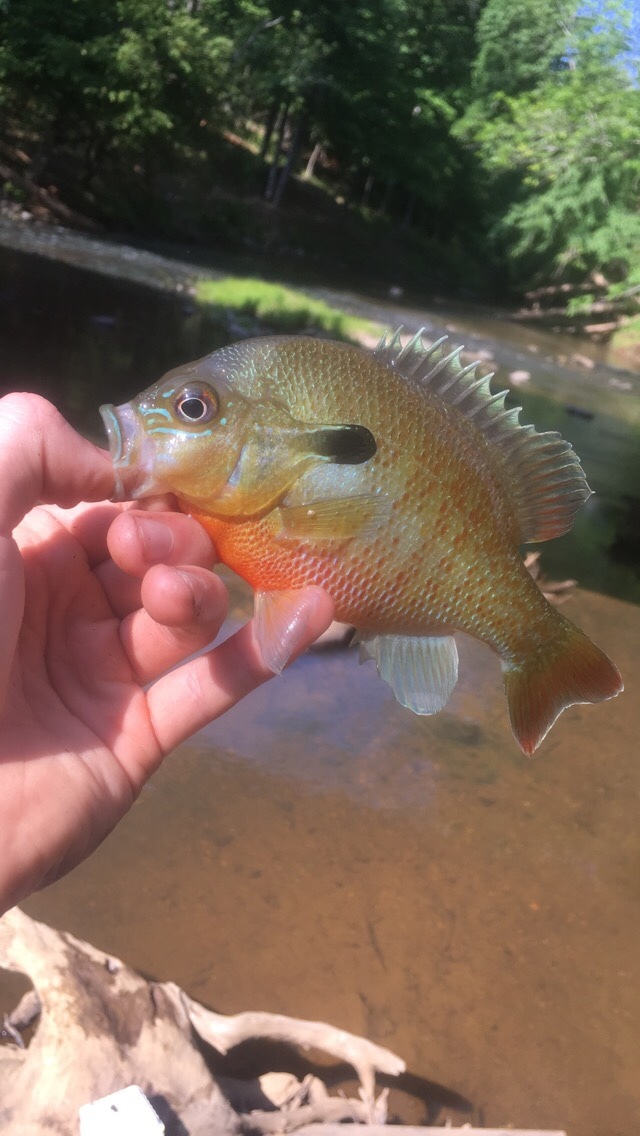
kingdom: Animalia
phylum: Chordata
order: Perciformes
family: Centrarchidae
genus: Lepomis
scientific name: Lepomis auritus
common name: Redbreast sunfish
